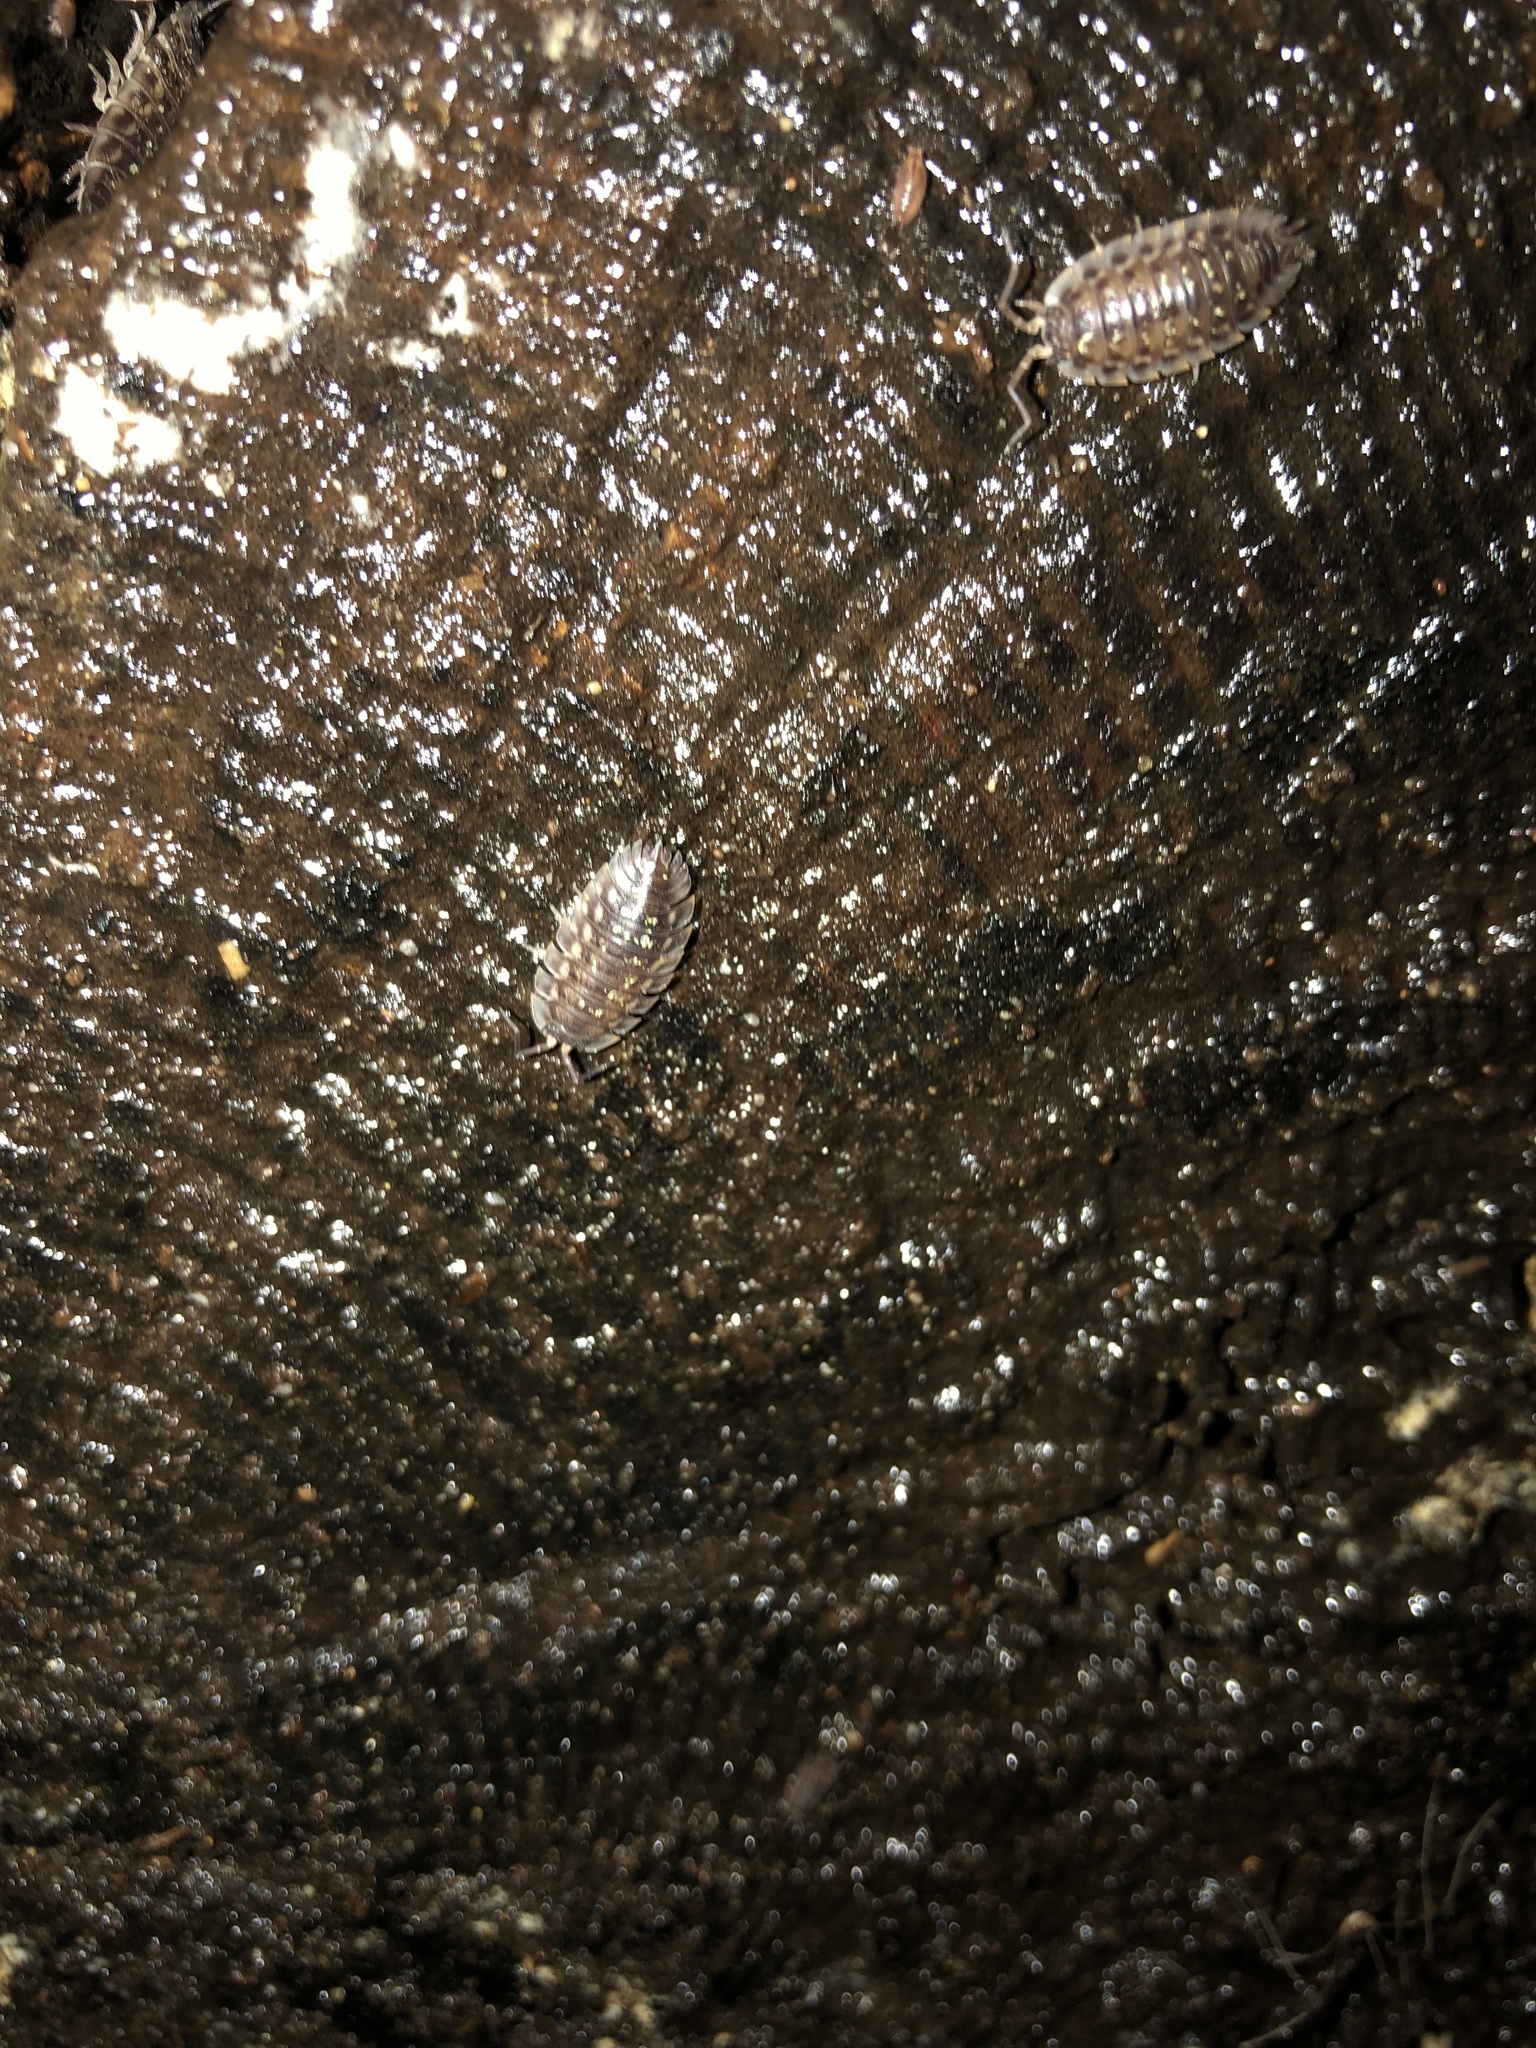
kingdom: Animalia
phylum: Arthropoda
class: Malacostraca
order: Isopoda
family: Oniscidae
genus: Oniscus
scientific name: Oniscus asellus
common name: Common shiny woodlouse
